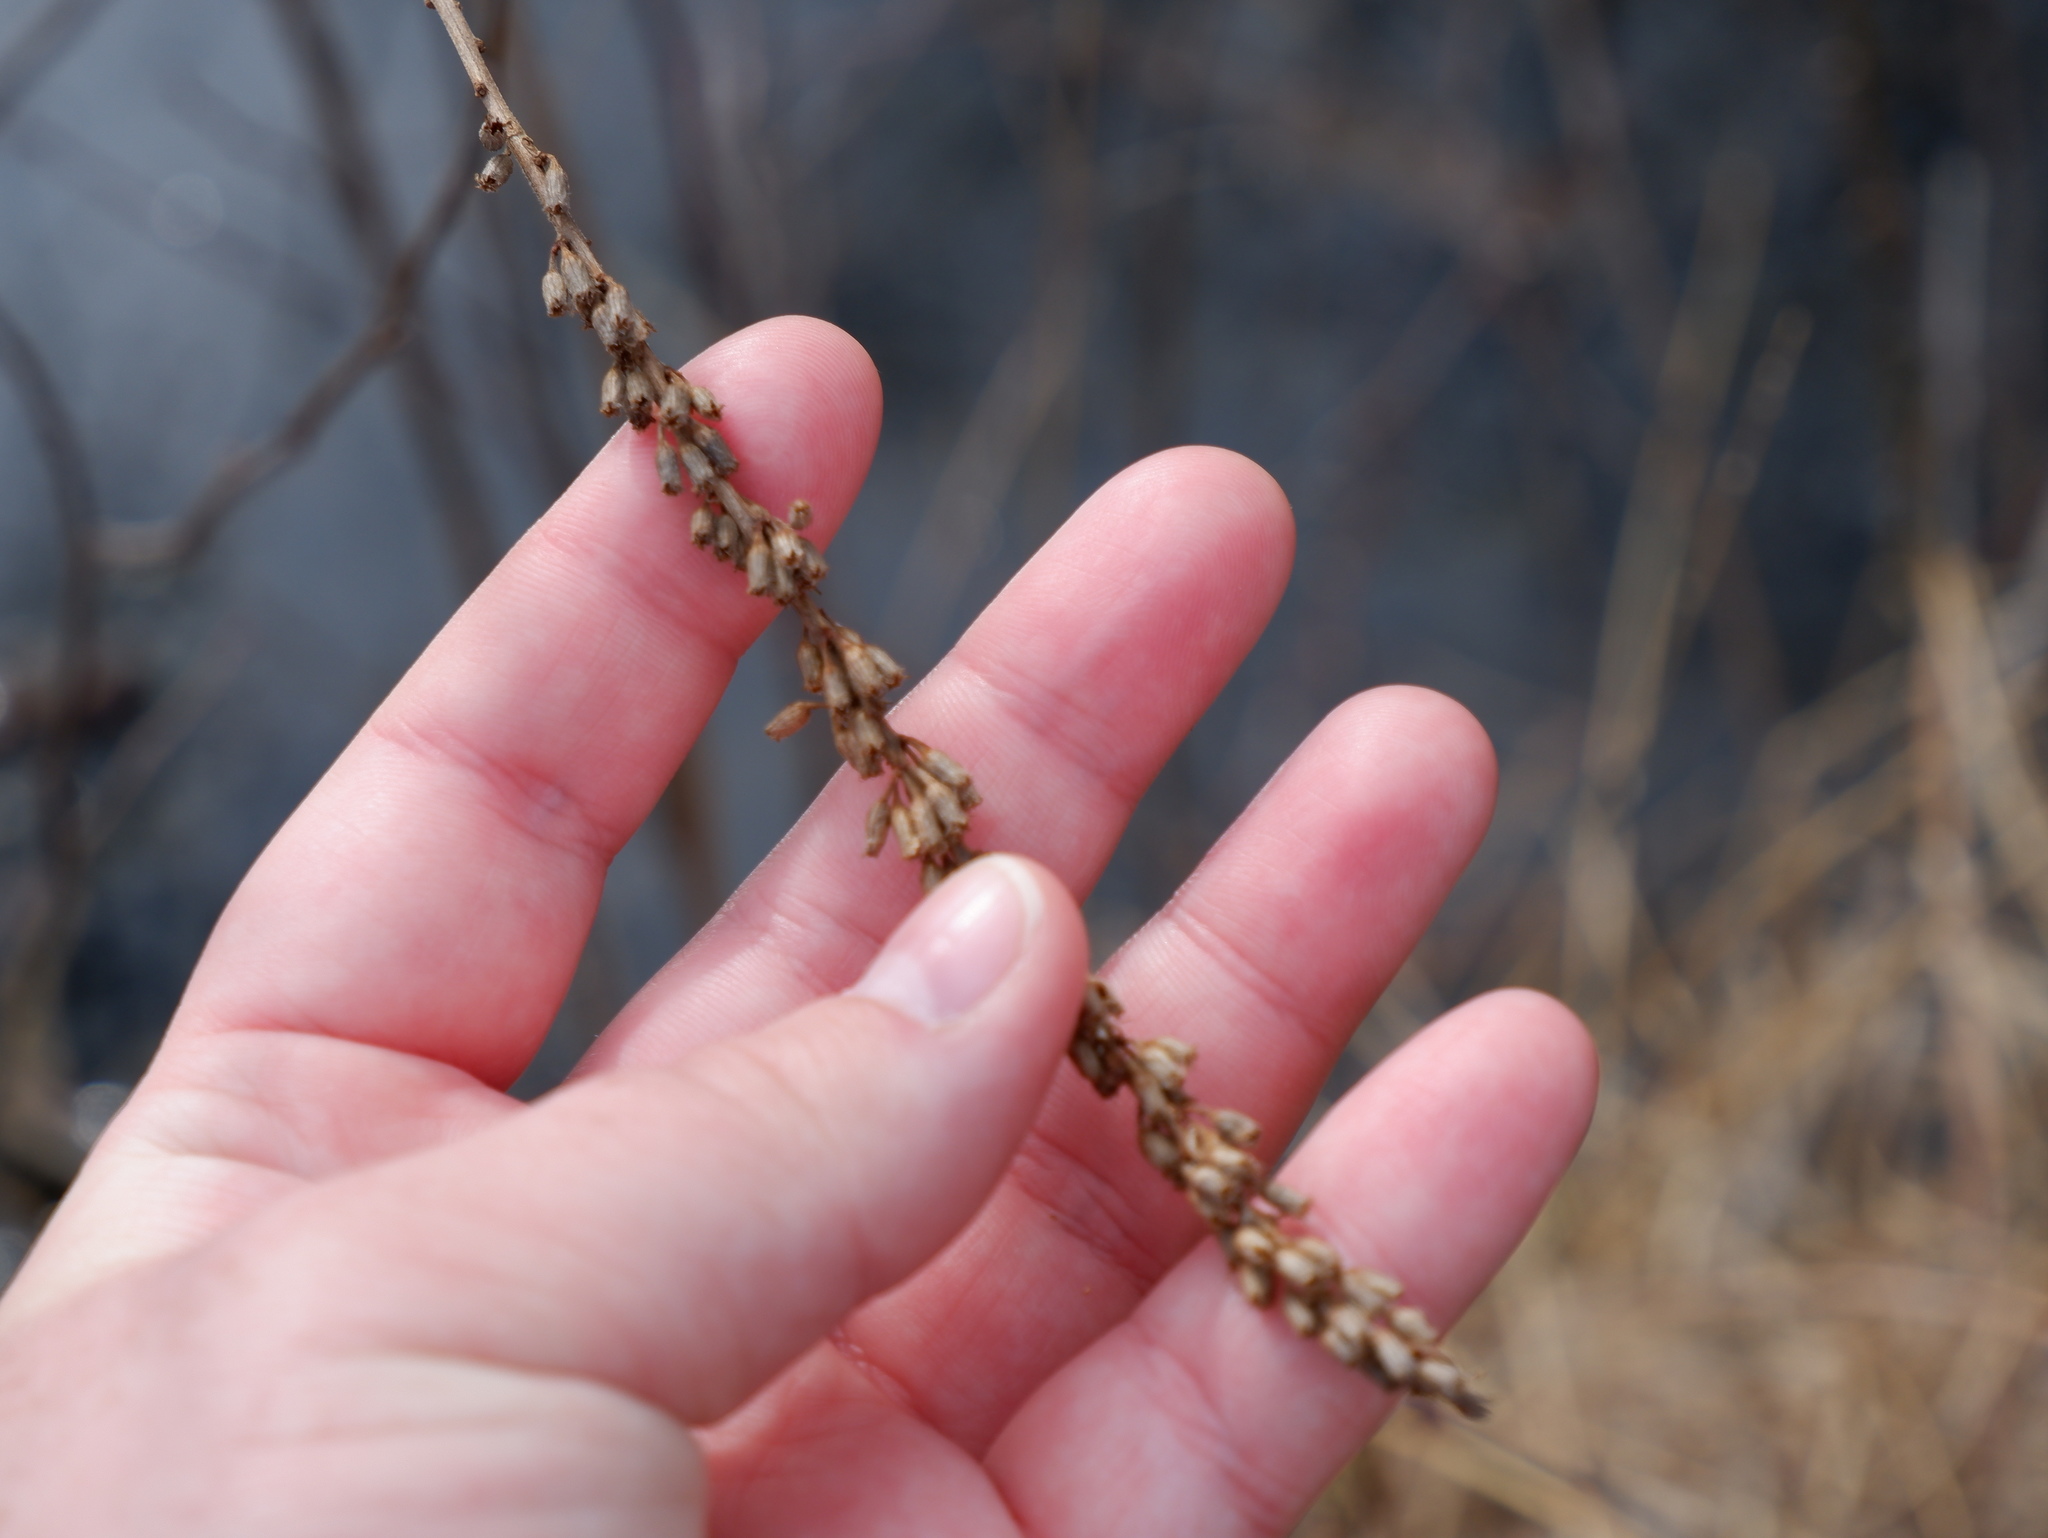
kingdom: Plantae
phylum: Tracheophyta
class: Magnoliopsida
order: Myrtales
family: Lythraceae
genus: Lythrum
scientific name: Lythrum salicaria
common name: Purple loosestrife
